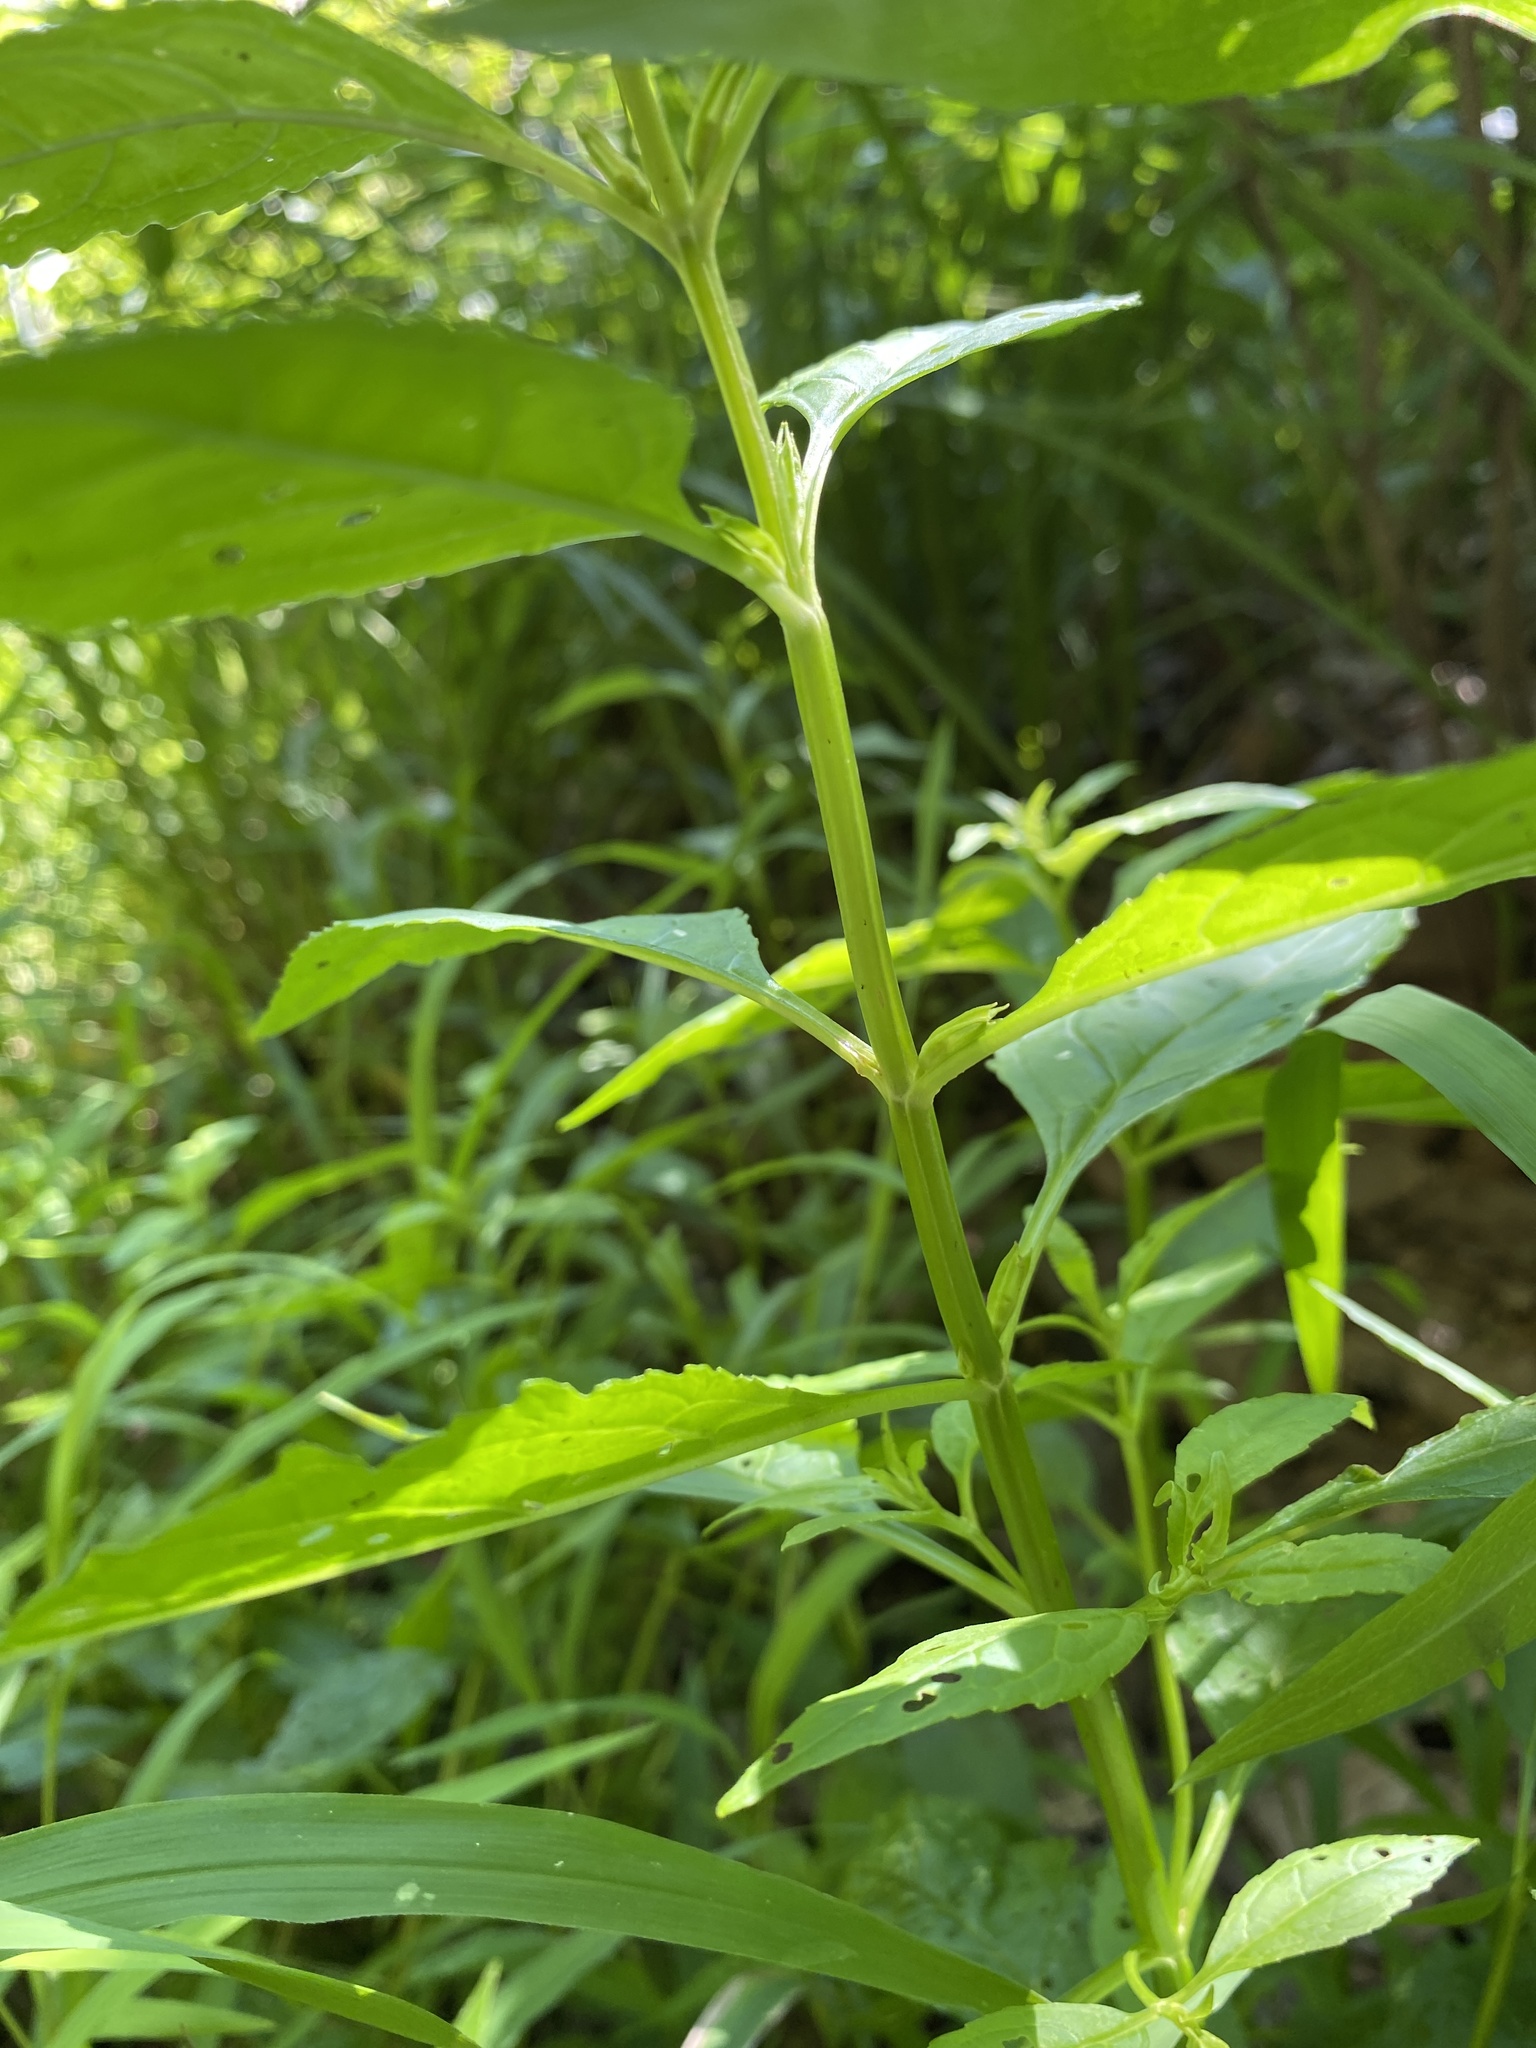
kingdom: Plantae
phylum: Tracheophyta
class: Magnoliopsida
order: Lamiales
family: Phrymaceae
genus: Mimulus
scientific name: Mimulus alatus
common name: Sharp-wing monkey-flower
